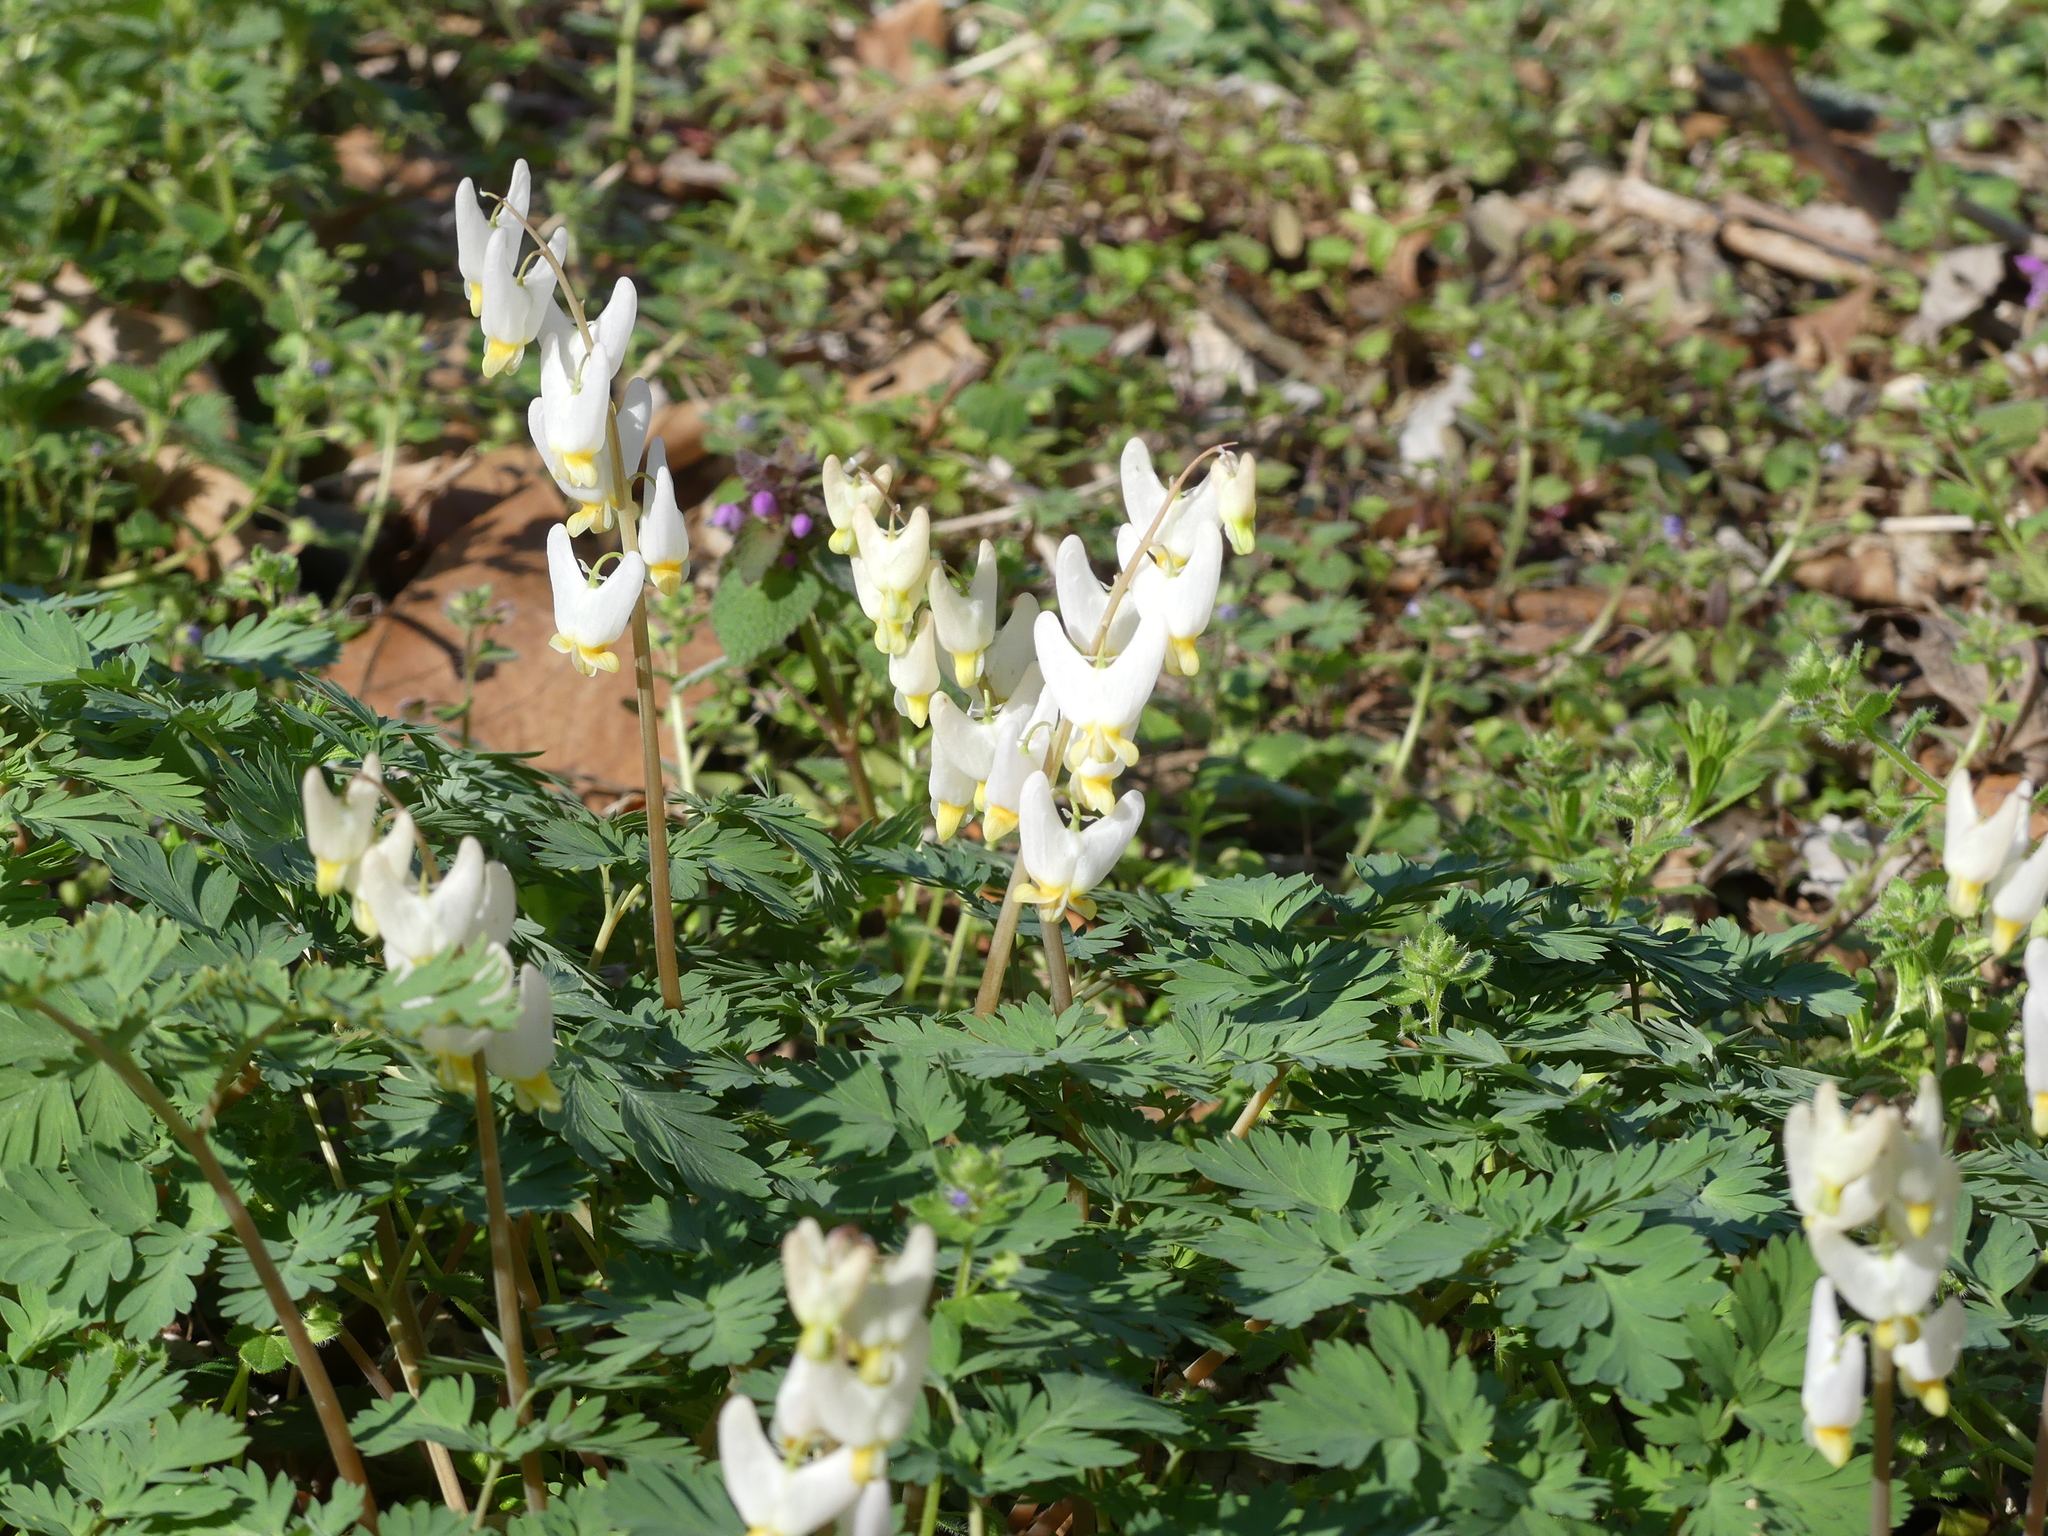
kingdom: Plantae
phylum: Tracheophyta
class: Magnoliopsida
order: Ranunculales
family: Papaveraceae
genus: Dicentra
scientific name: Dicentra cucullaria
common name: Dutchman's breeches
